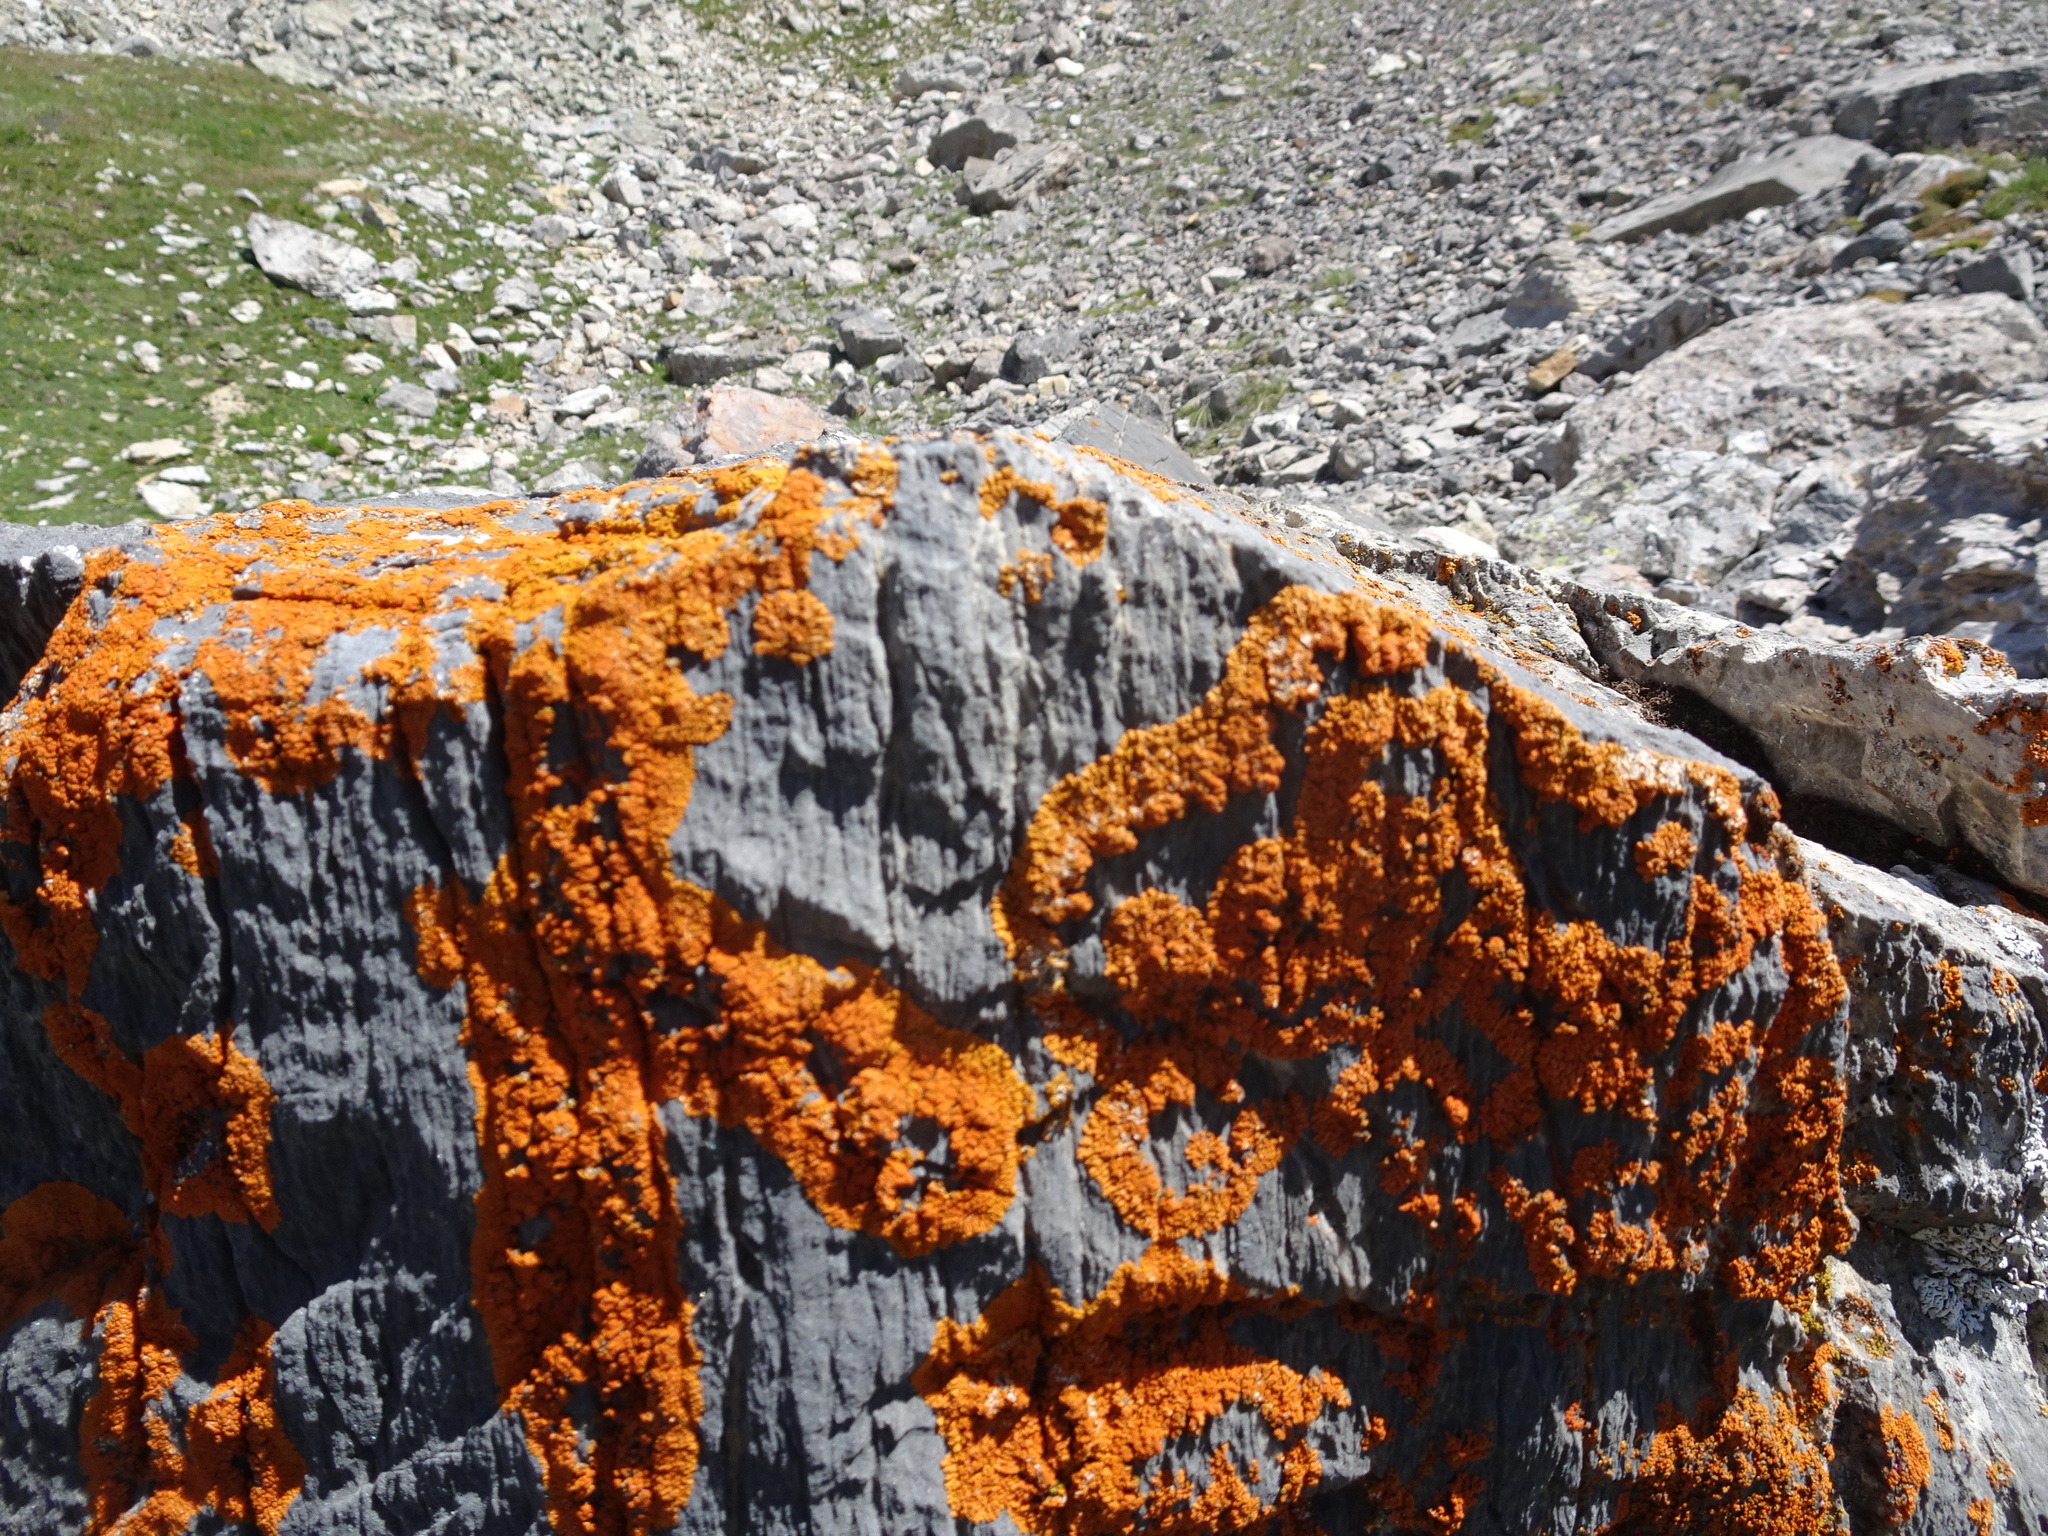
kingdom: Fungi
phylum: Ascomycota
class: Lecanoromycetes
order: Teloschistales
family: Teloschistaceae
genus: Xanthoria
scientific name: Xanthoria elegans
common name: Elegant sunburst lichen
